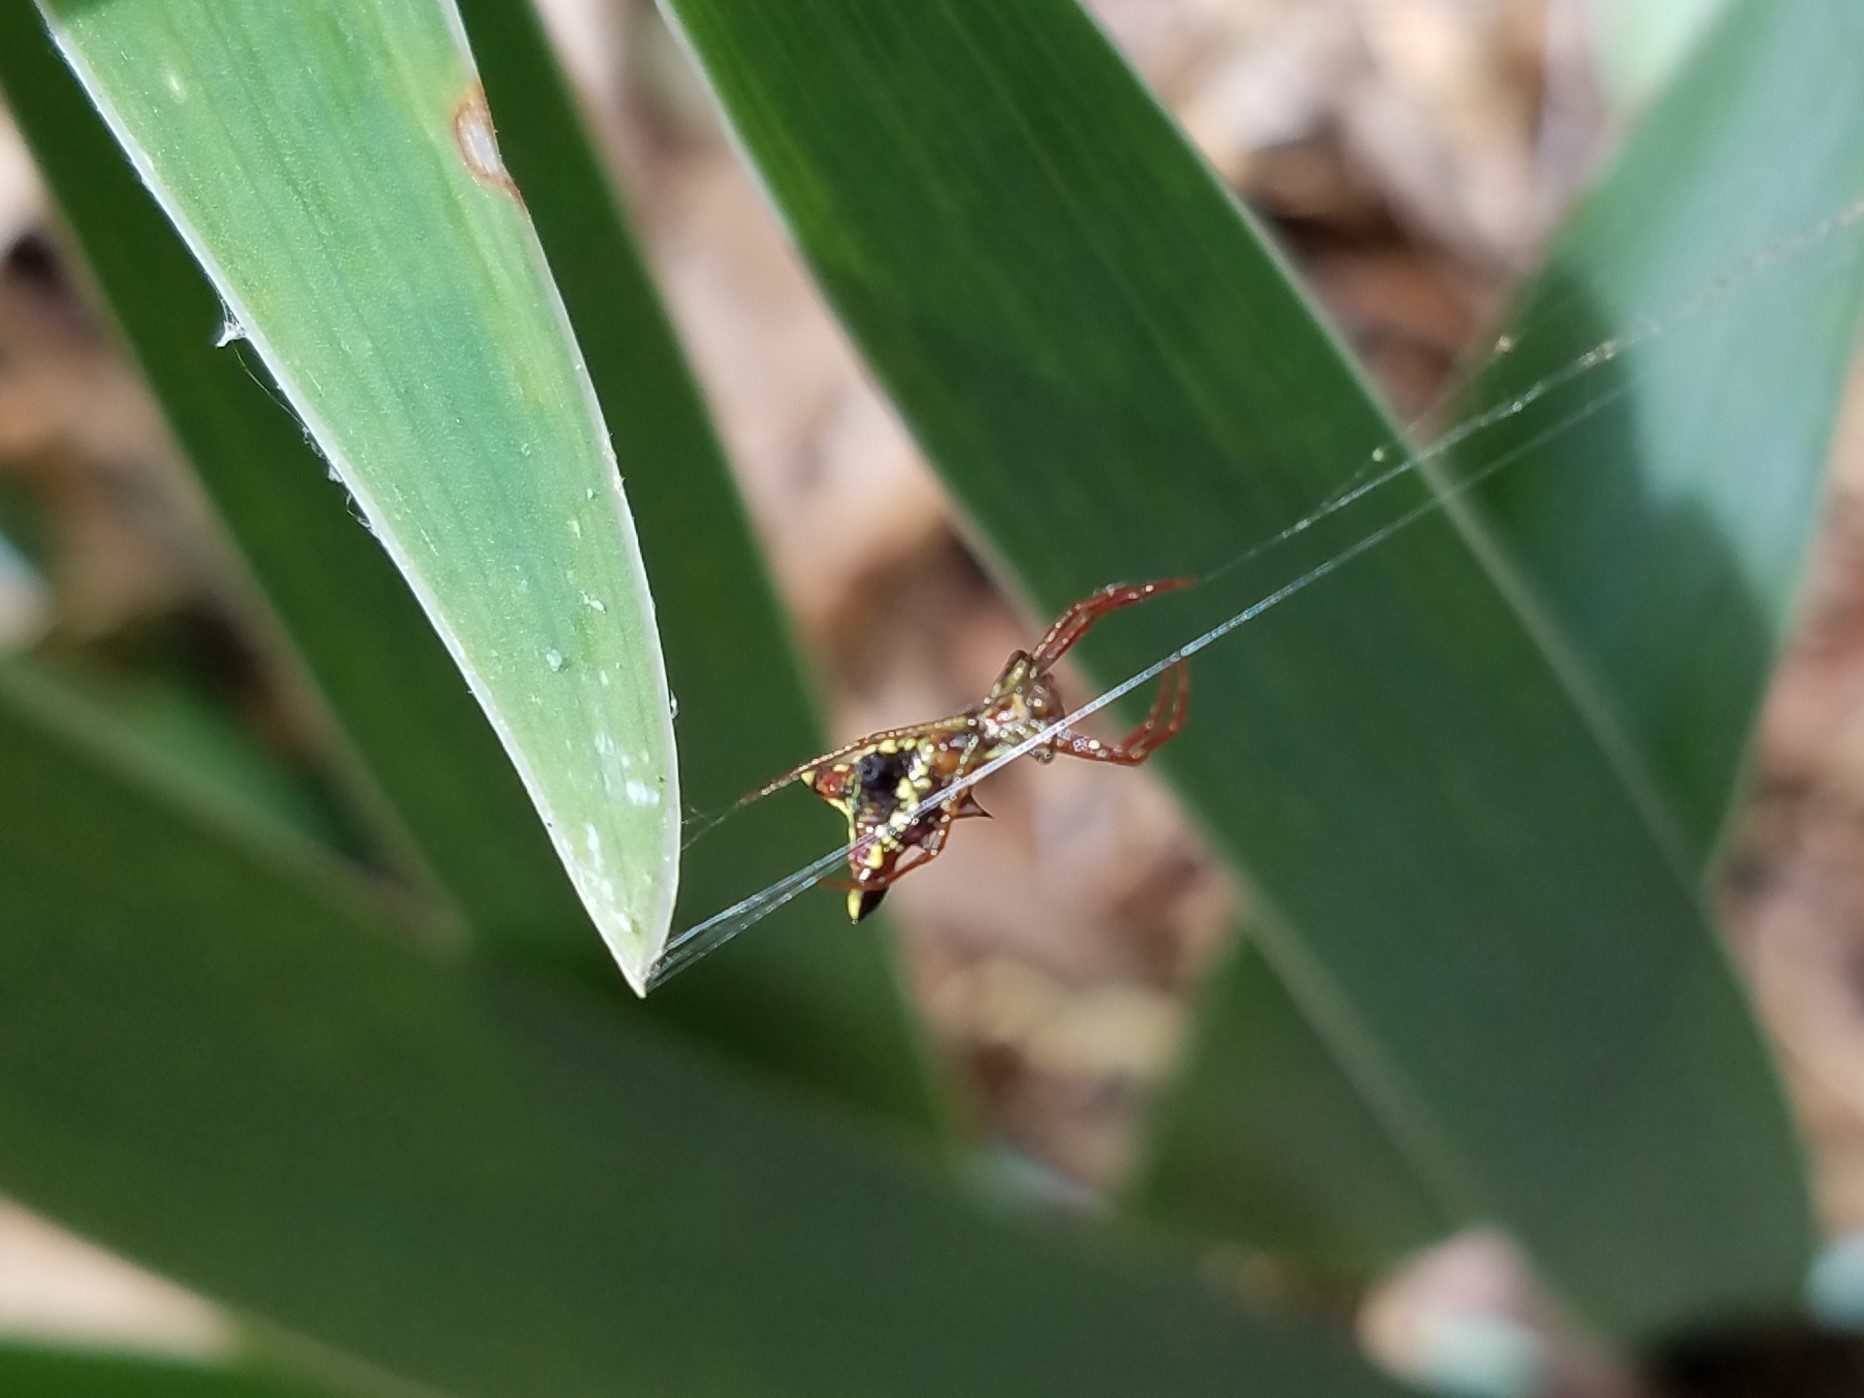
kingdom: Animalia
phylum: Arthropoda
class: Arachnida
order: Araneae
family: Araneidae
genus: Micrathena
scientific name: Micrathena sagittata
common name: Orb weavers
